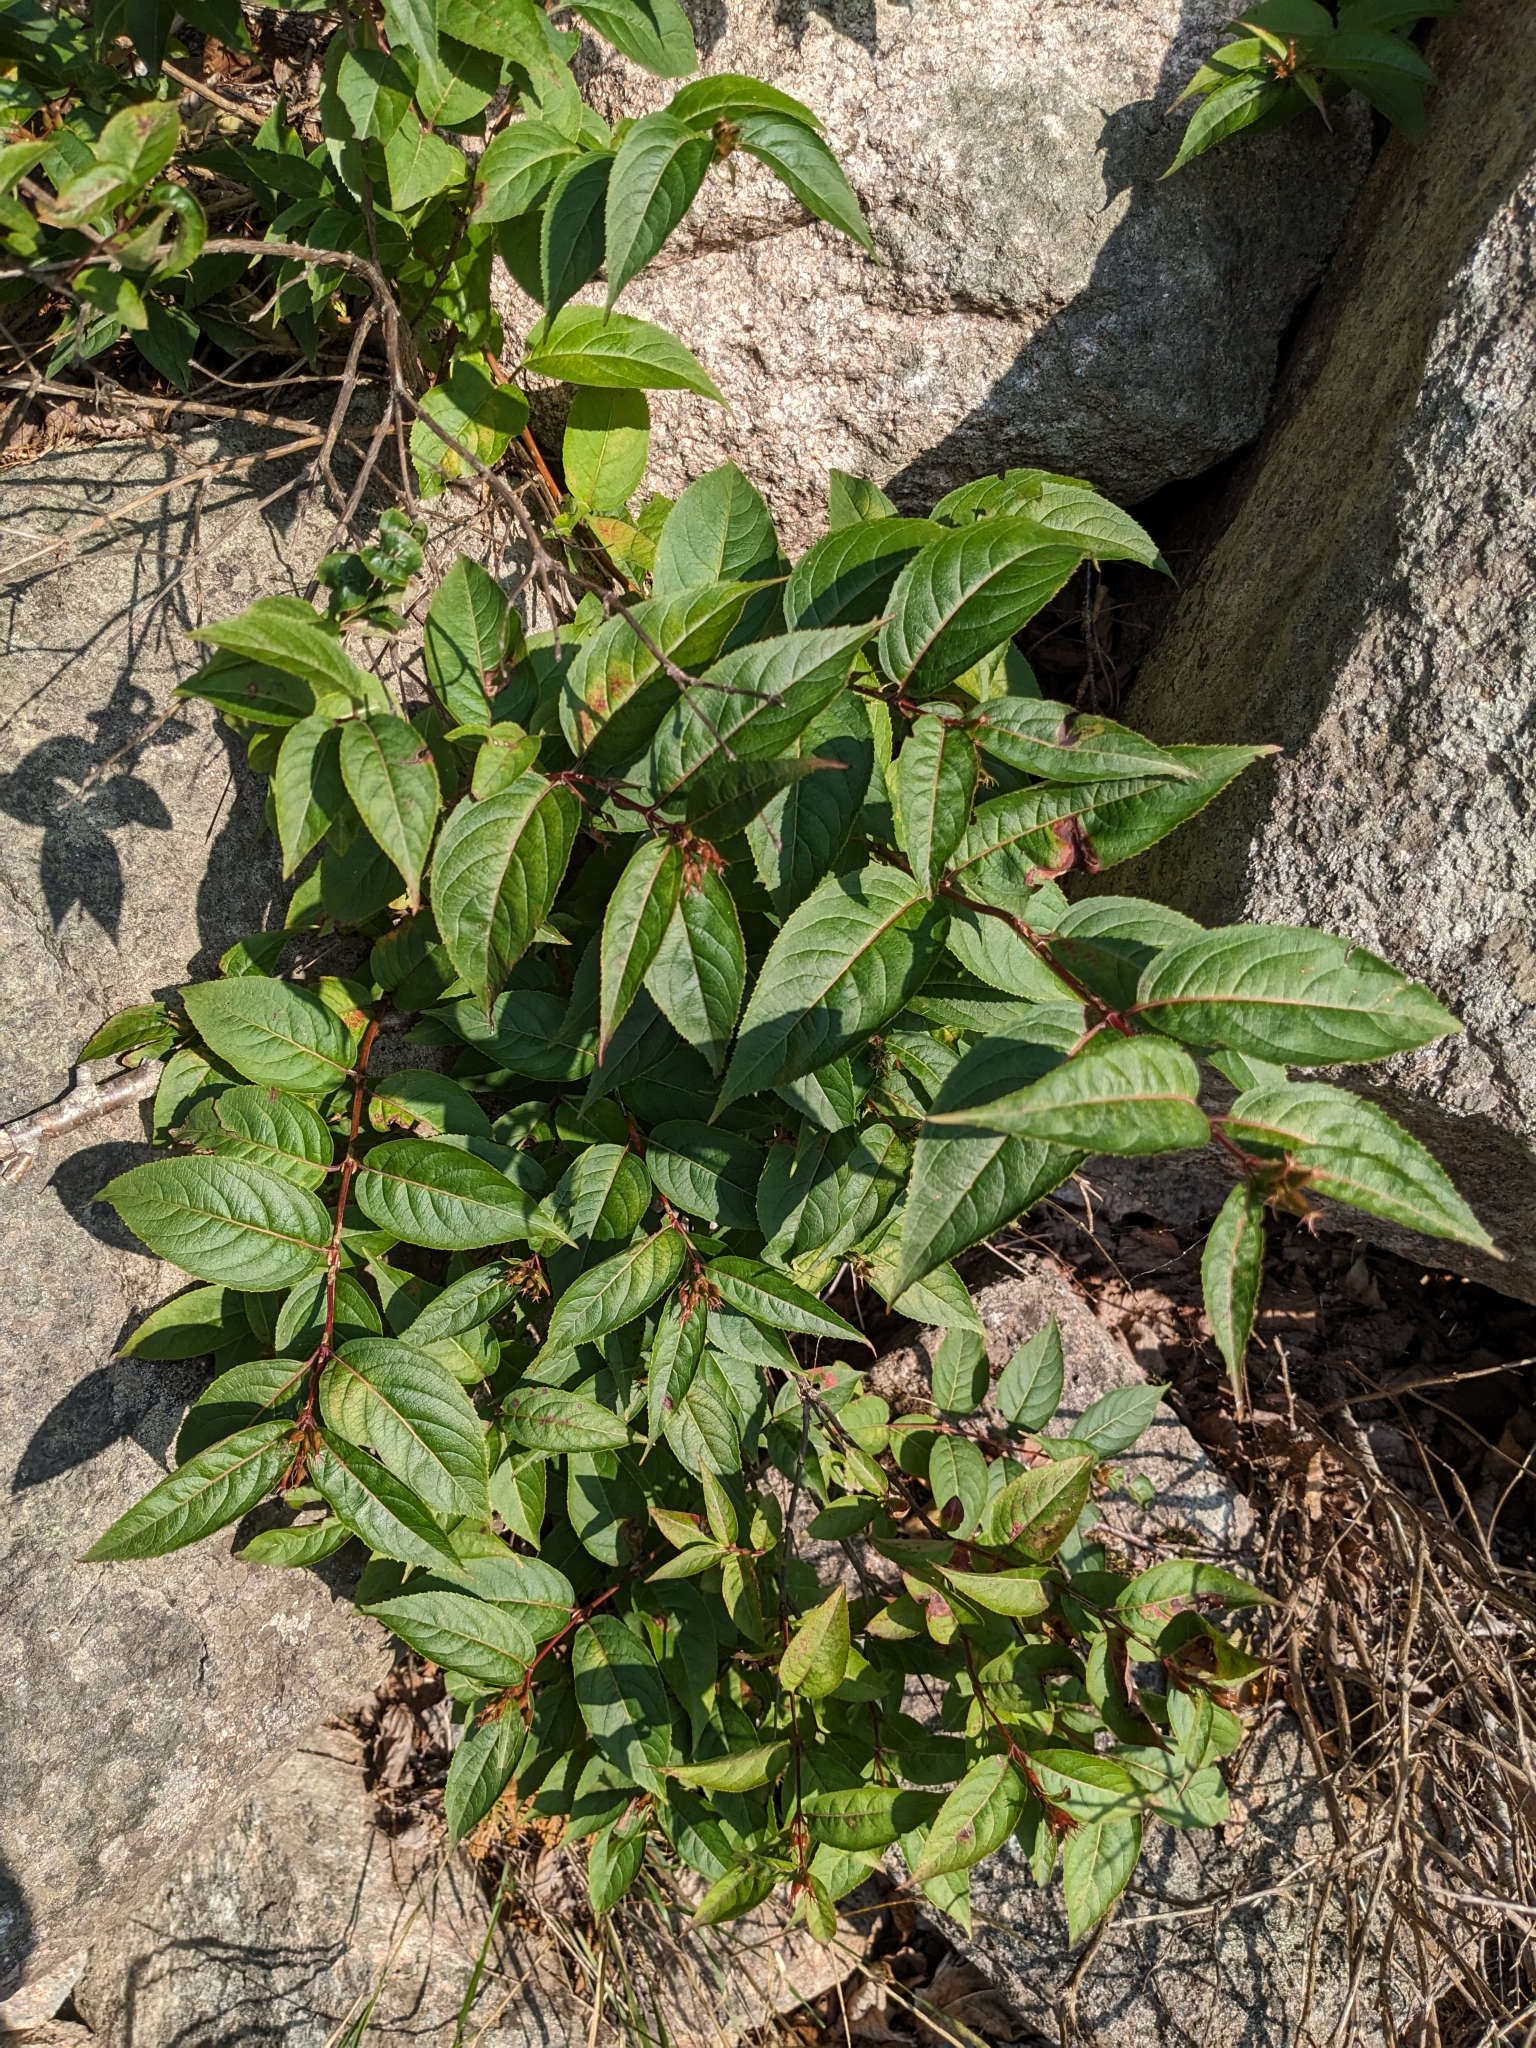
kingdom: Plantae
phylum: Tracheophyta
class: Magnoliopsida
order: Dipsacales
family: Caprifoliaceae
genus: Diervilla
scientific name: Diervilla lonicera
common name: Bush-honeysuckle
